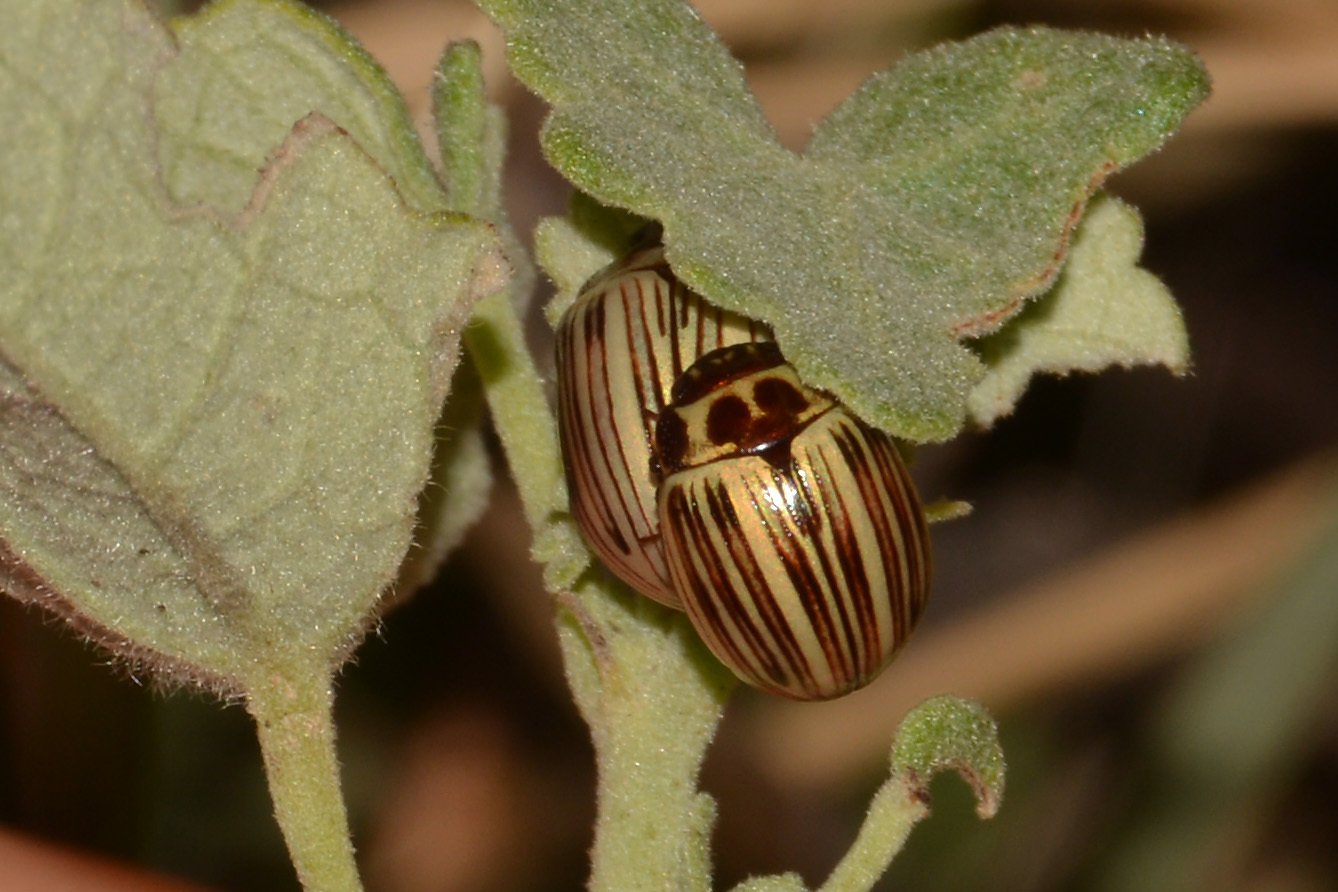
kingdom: Animalia
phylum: Arthropoda
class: Insecta
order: Coleoptera
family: Chrysomelidae
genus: Zygogramma
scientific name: Zygogramma
